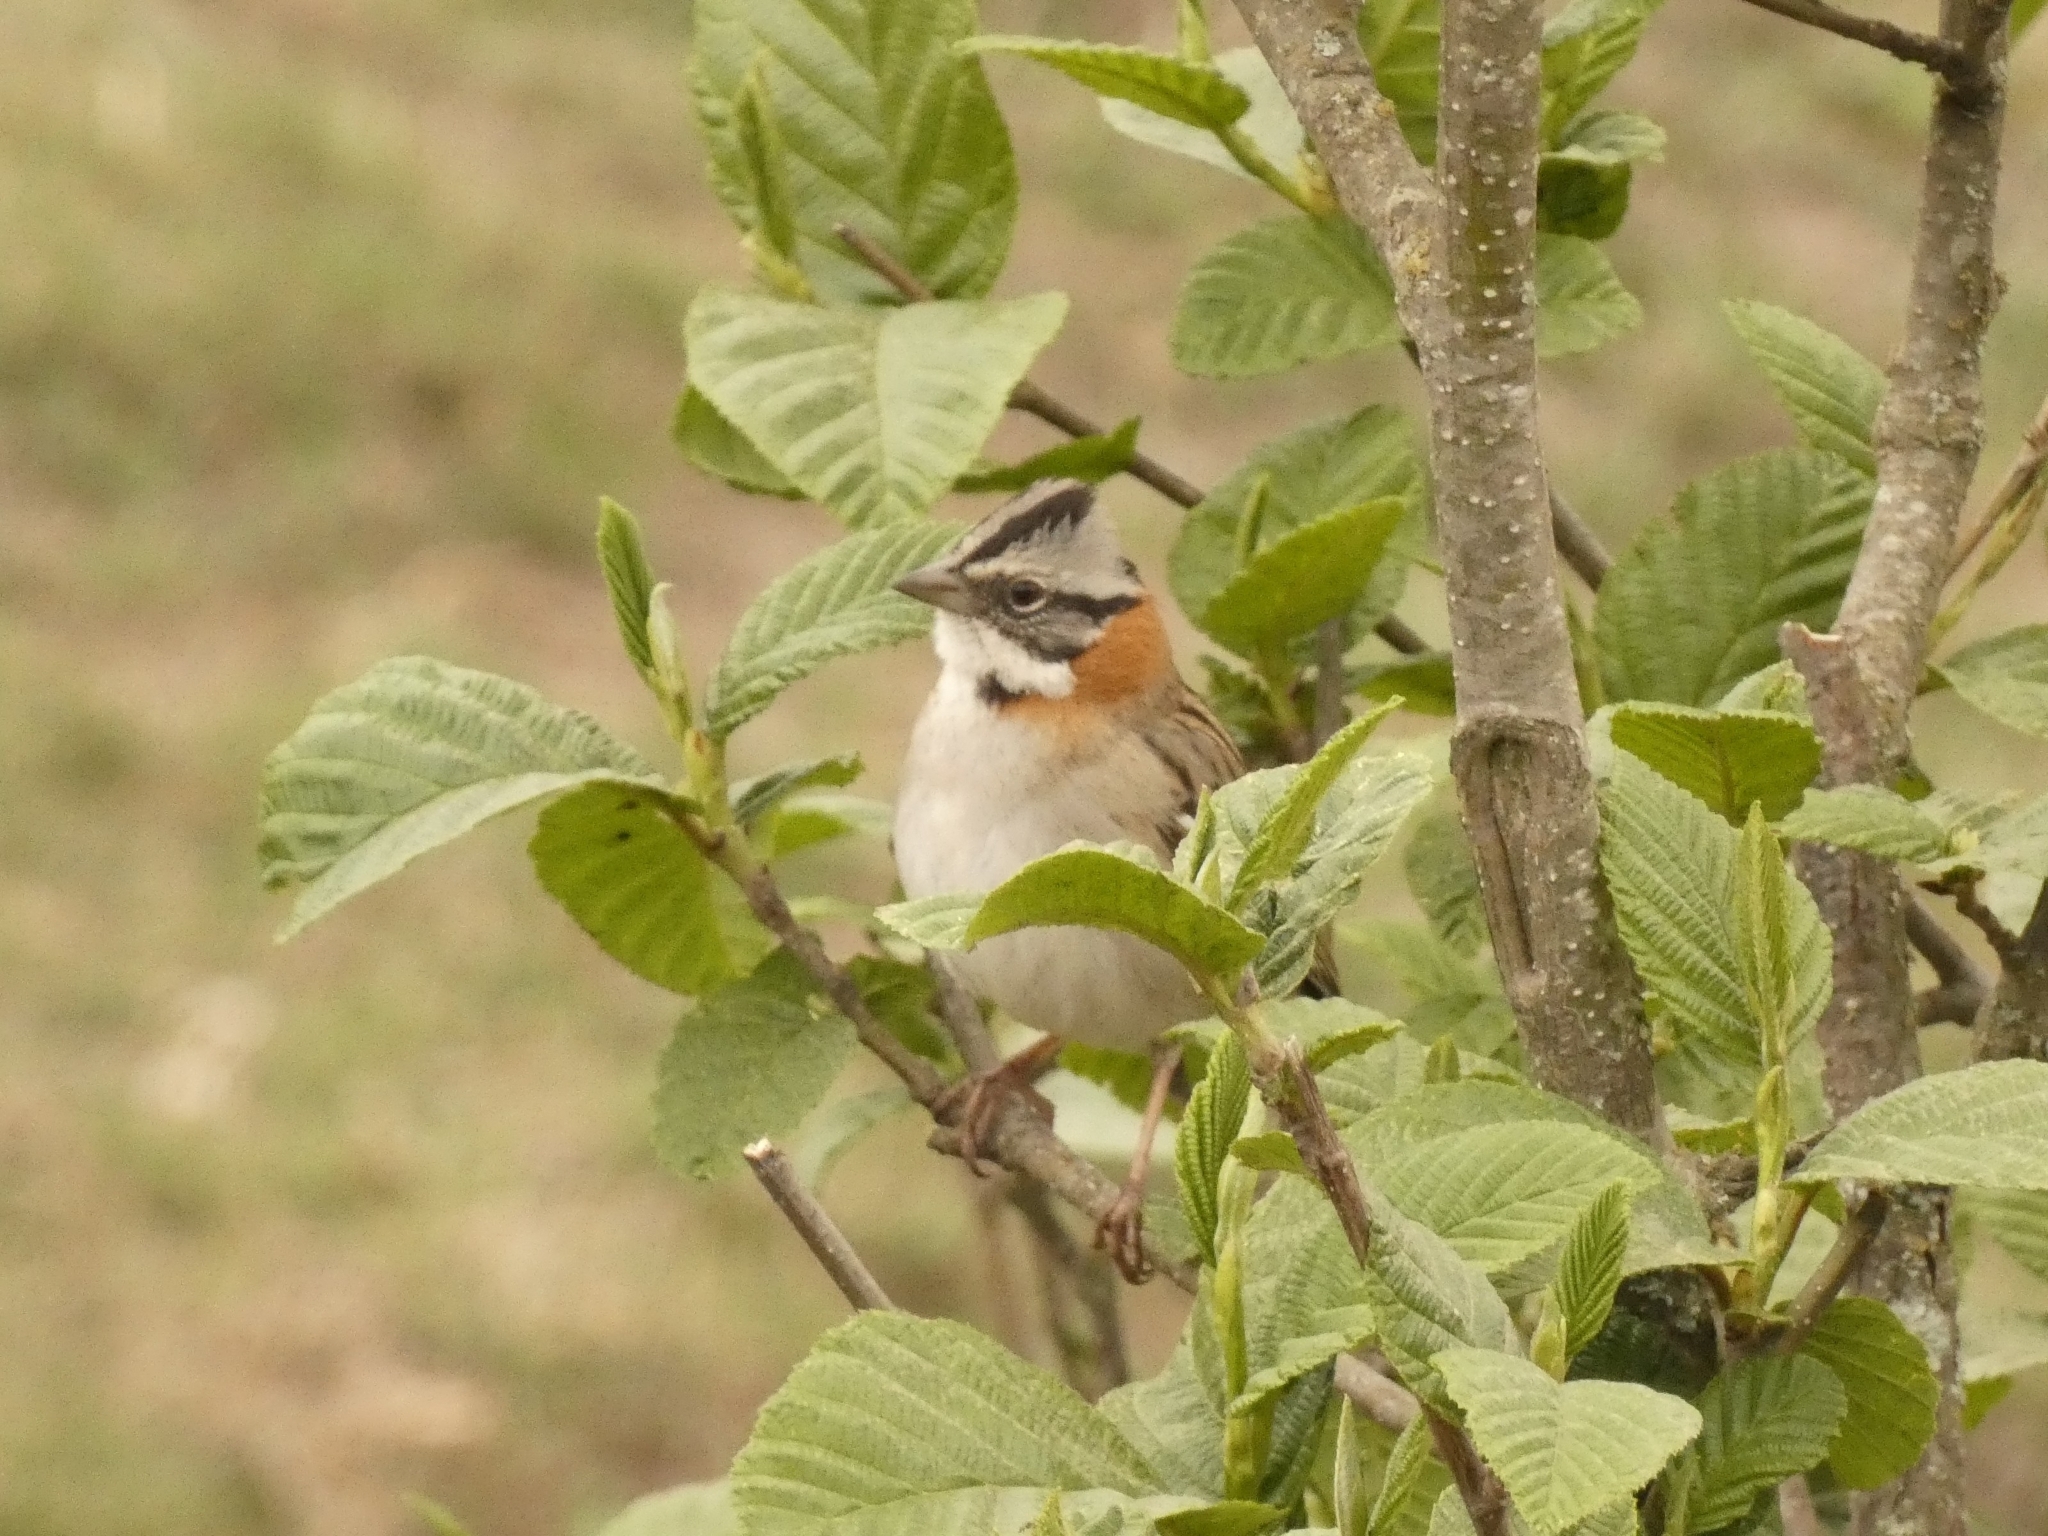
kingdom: Animalia
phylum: Chordata
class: Aves
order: Passeriformes
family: Passerellidae
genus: Zonotrichia
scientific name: Zonotrichia capensis
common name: Rufous-collared sparrow
